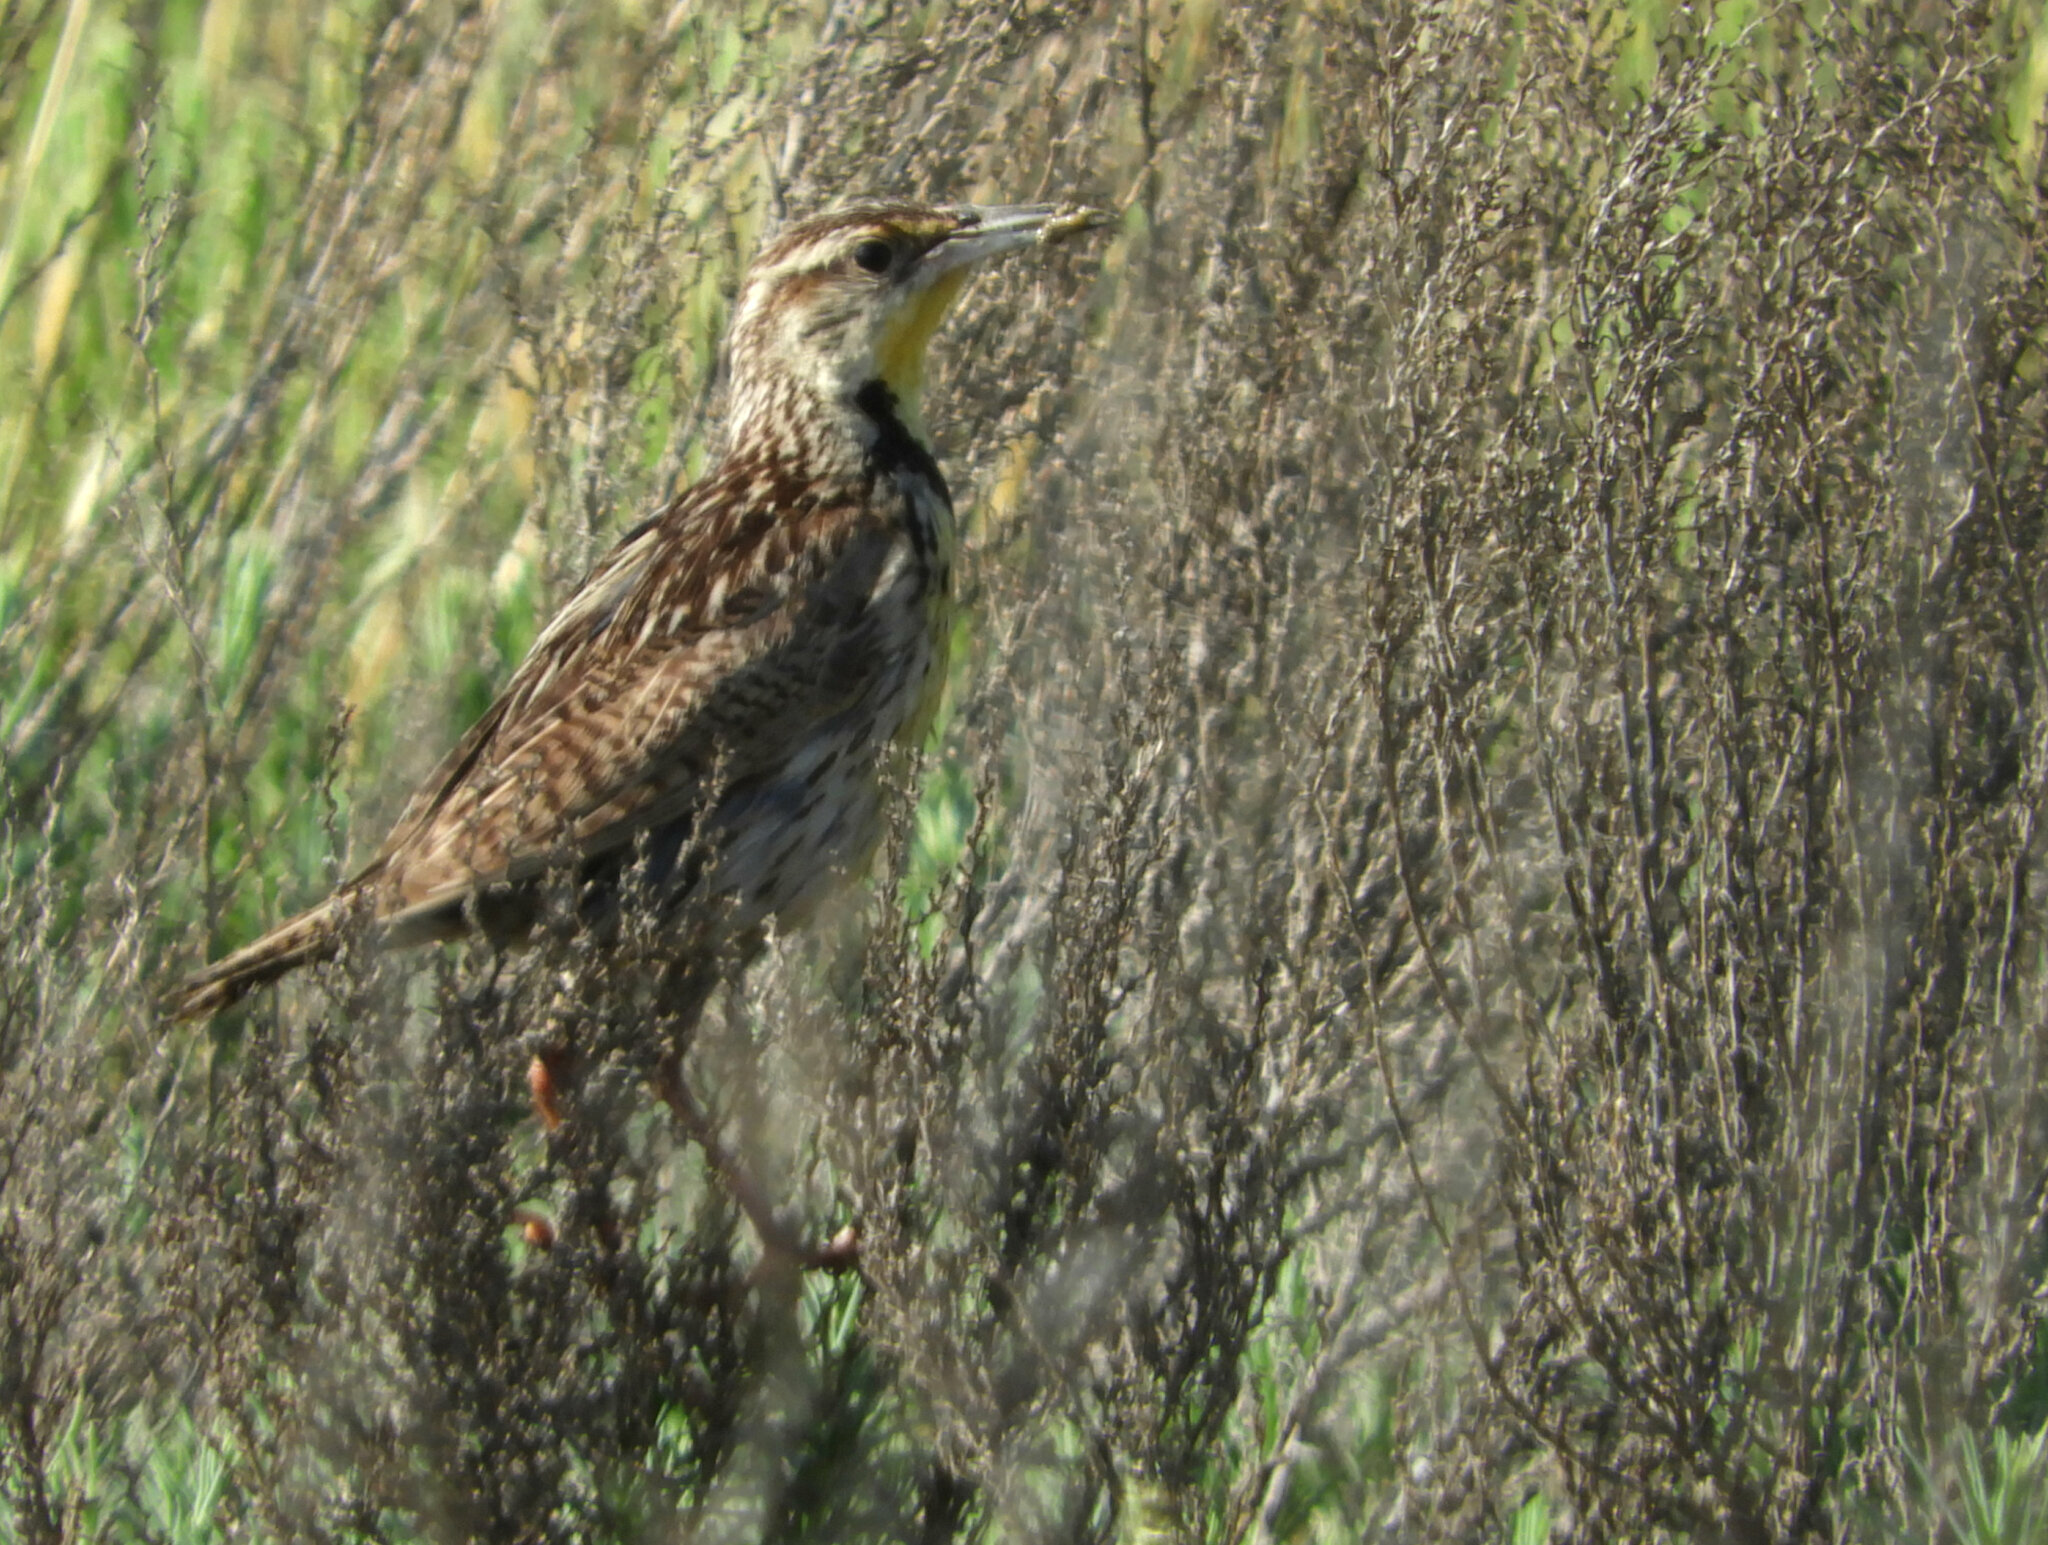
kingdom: Animalia
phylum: Chordata
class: Aves
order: Passeriformes
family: Icteridae
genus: Sturnella
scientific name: Sturnella neglecta
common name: Western meadowlark
